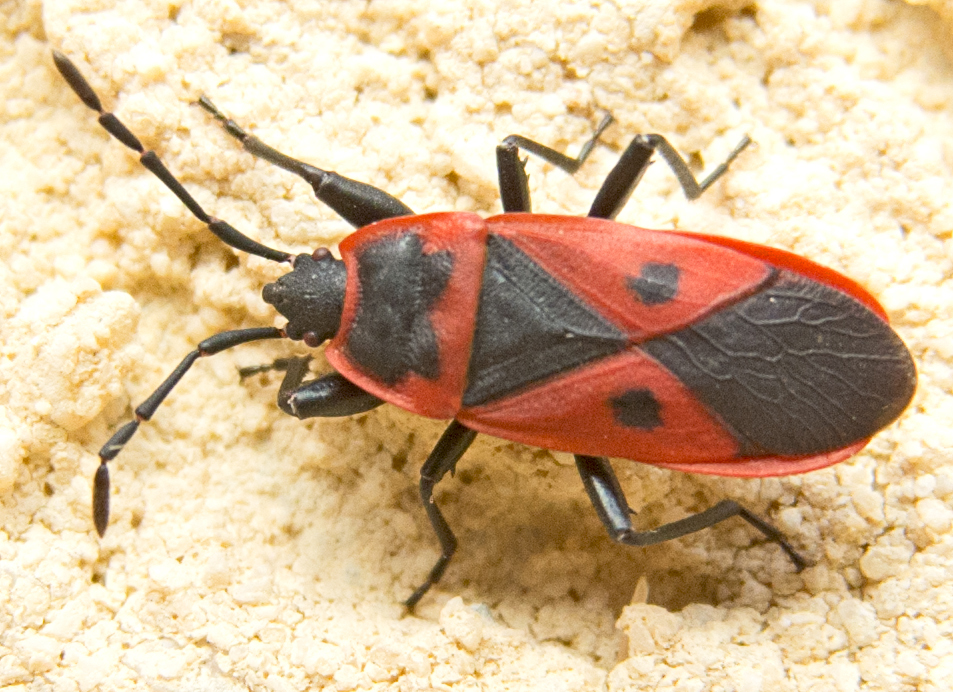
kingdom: Animalia
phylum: Arthropoda
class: Insecta
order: Hemiptera
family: Pyrrhocoridae
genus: Scantius
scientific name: Scantius aegyptius
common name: Red bug
